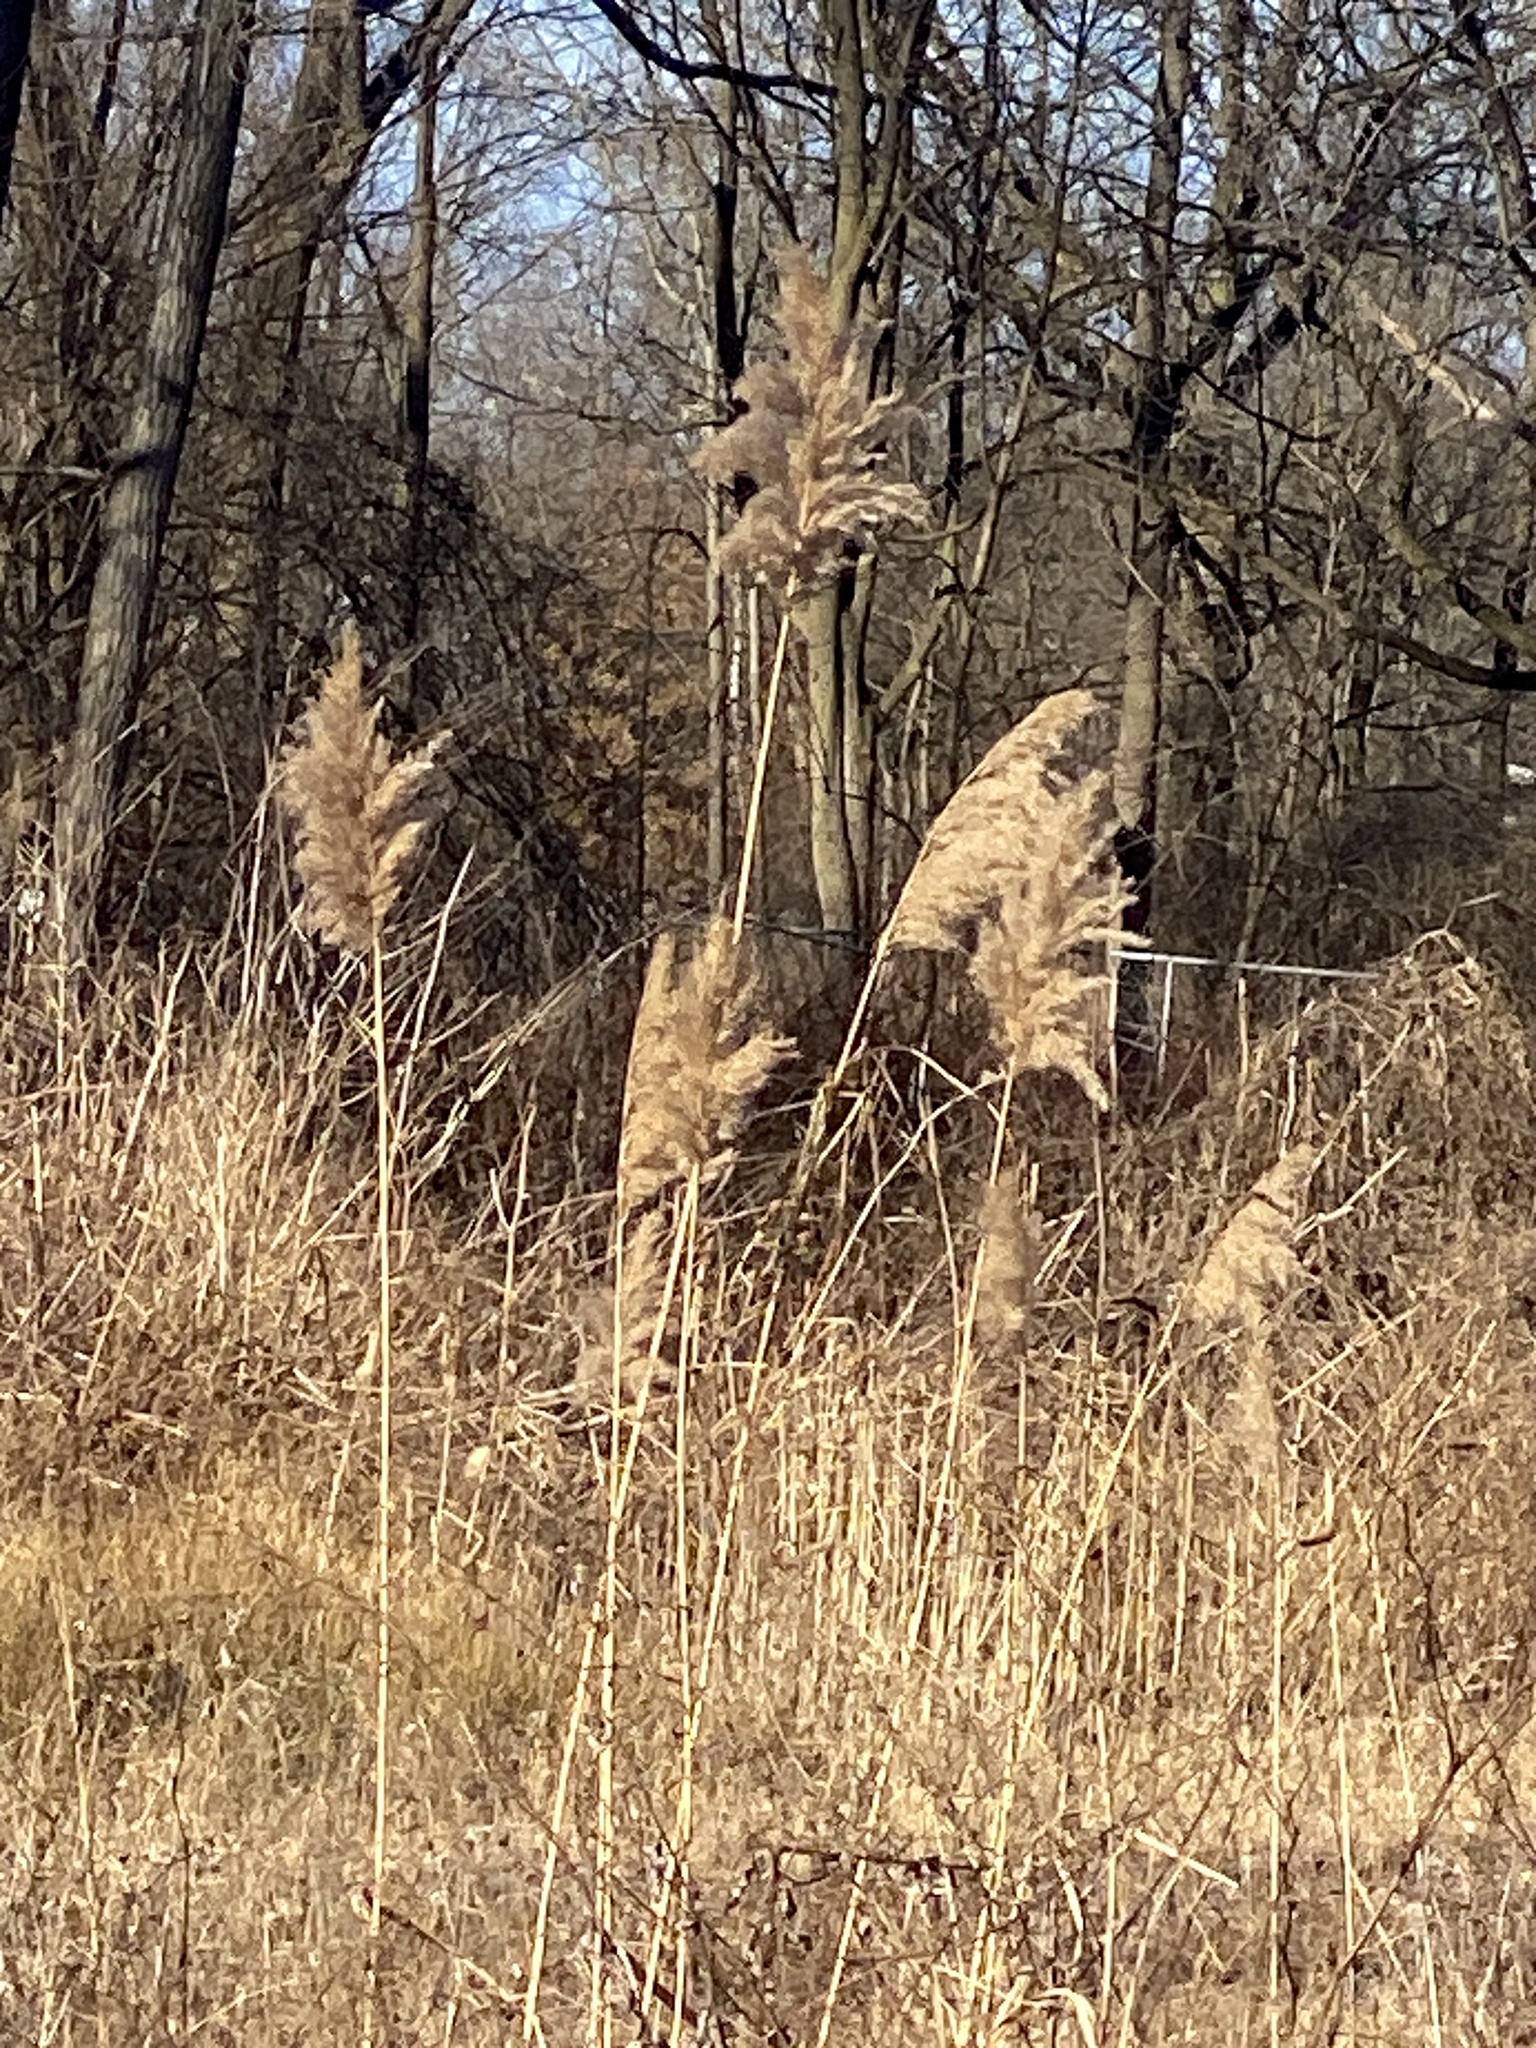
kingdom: Plantae
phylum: Tracheophyta
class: Liliopsida
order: Poales
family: Poaceae
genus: Phragmites
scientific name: Phragmites australis
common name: Common reed
